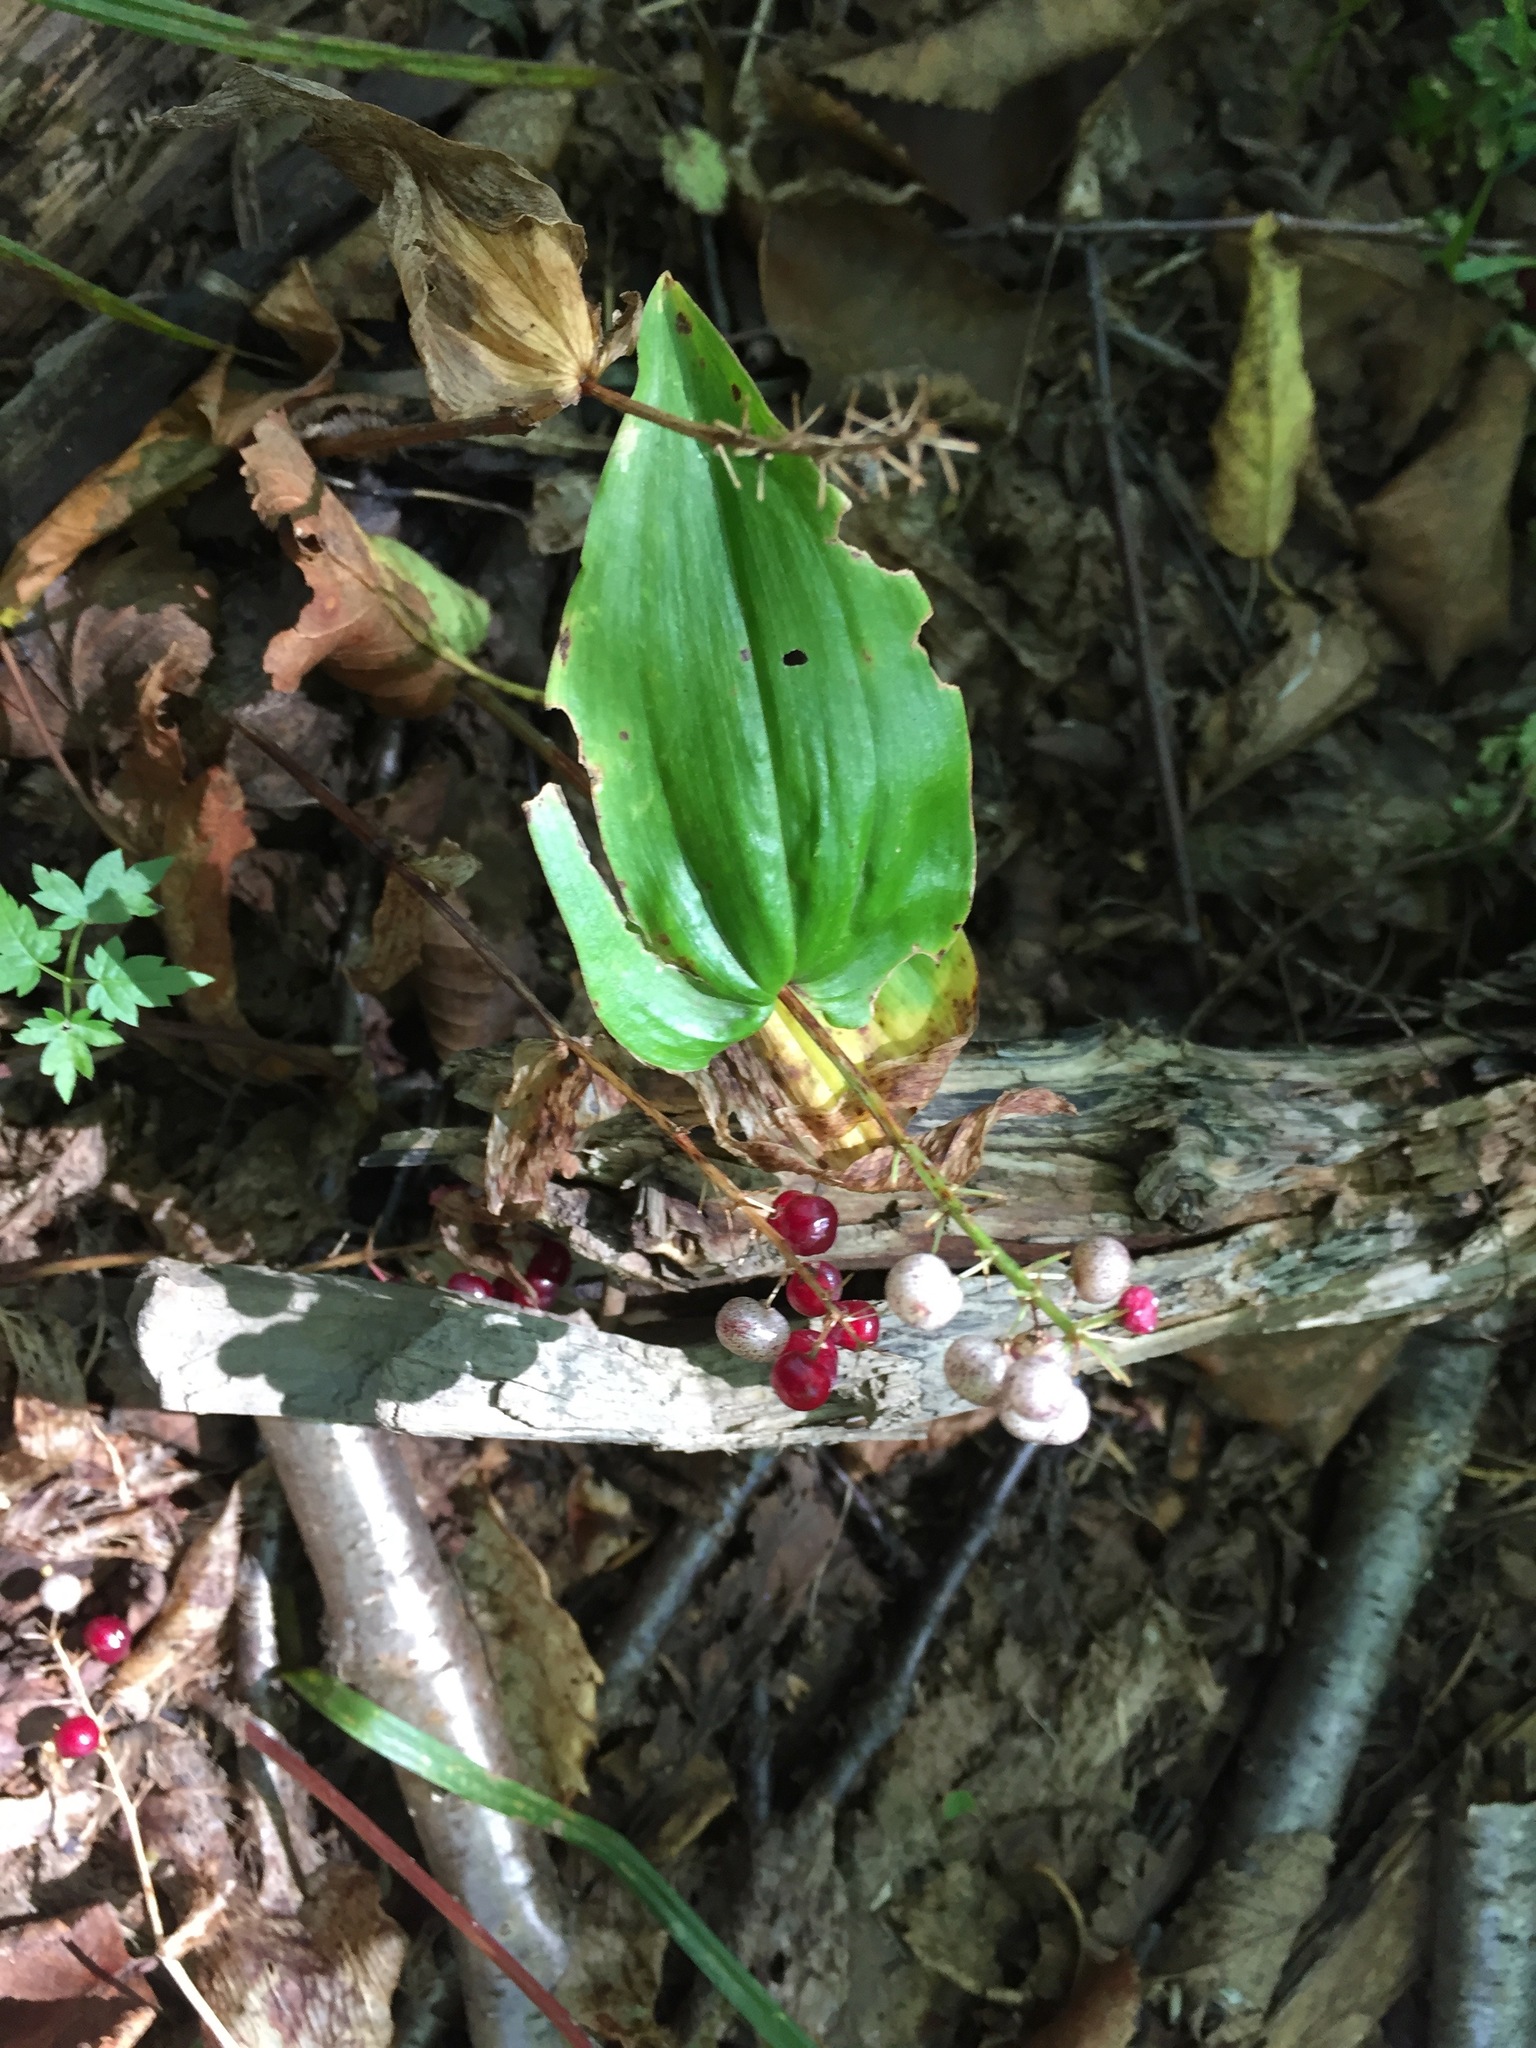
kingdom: Plantae
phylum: Tracheophyta
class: Liliopsida
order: Asparagales
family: Asparagaceae
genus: Maianthemum
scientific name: Maianthemum canadense
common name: False lily-of-the-valley
